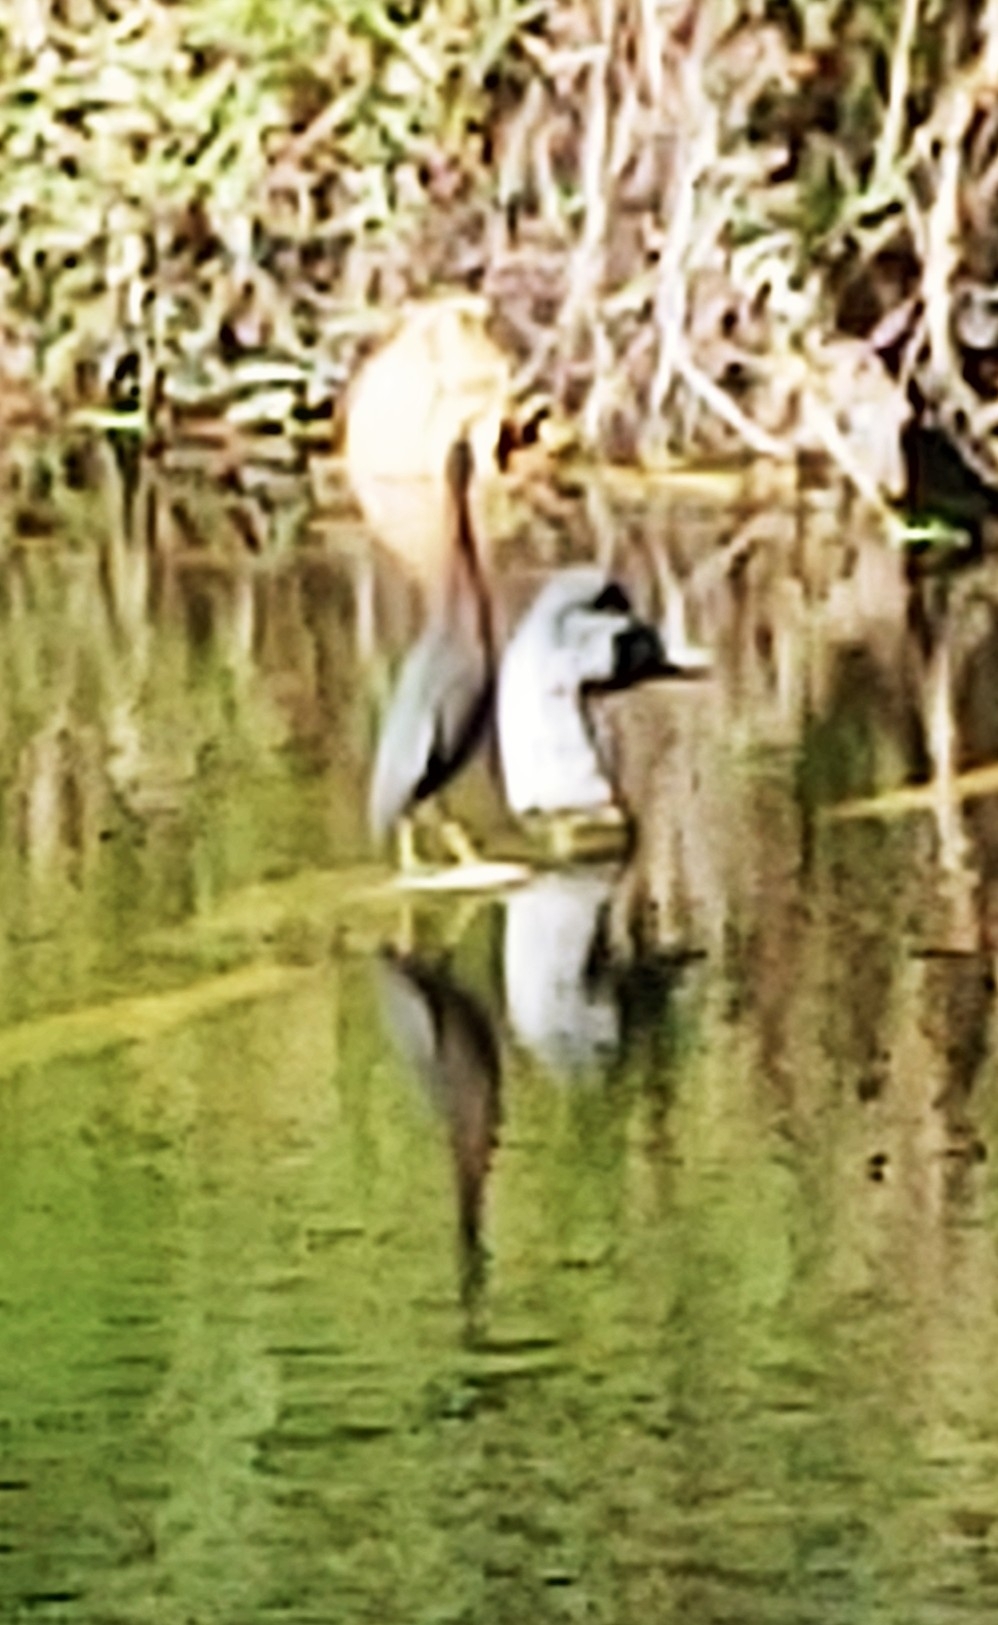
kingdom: Animalia
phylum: Chordata
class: Aves
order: Pelecaniformes
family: Ardeidae
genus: Butorides
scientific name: Butorides virescens
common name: Green heron
